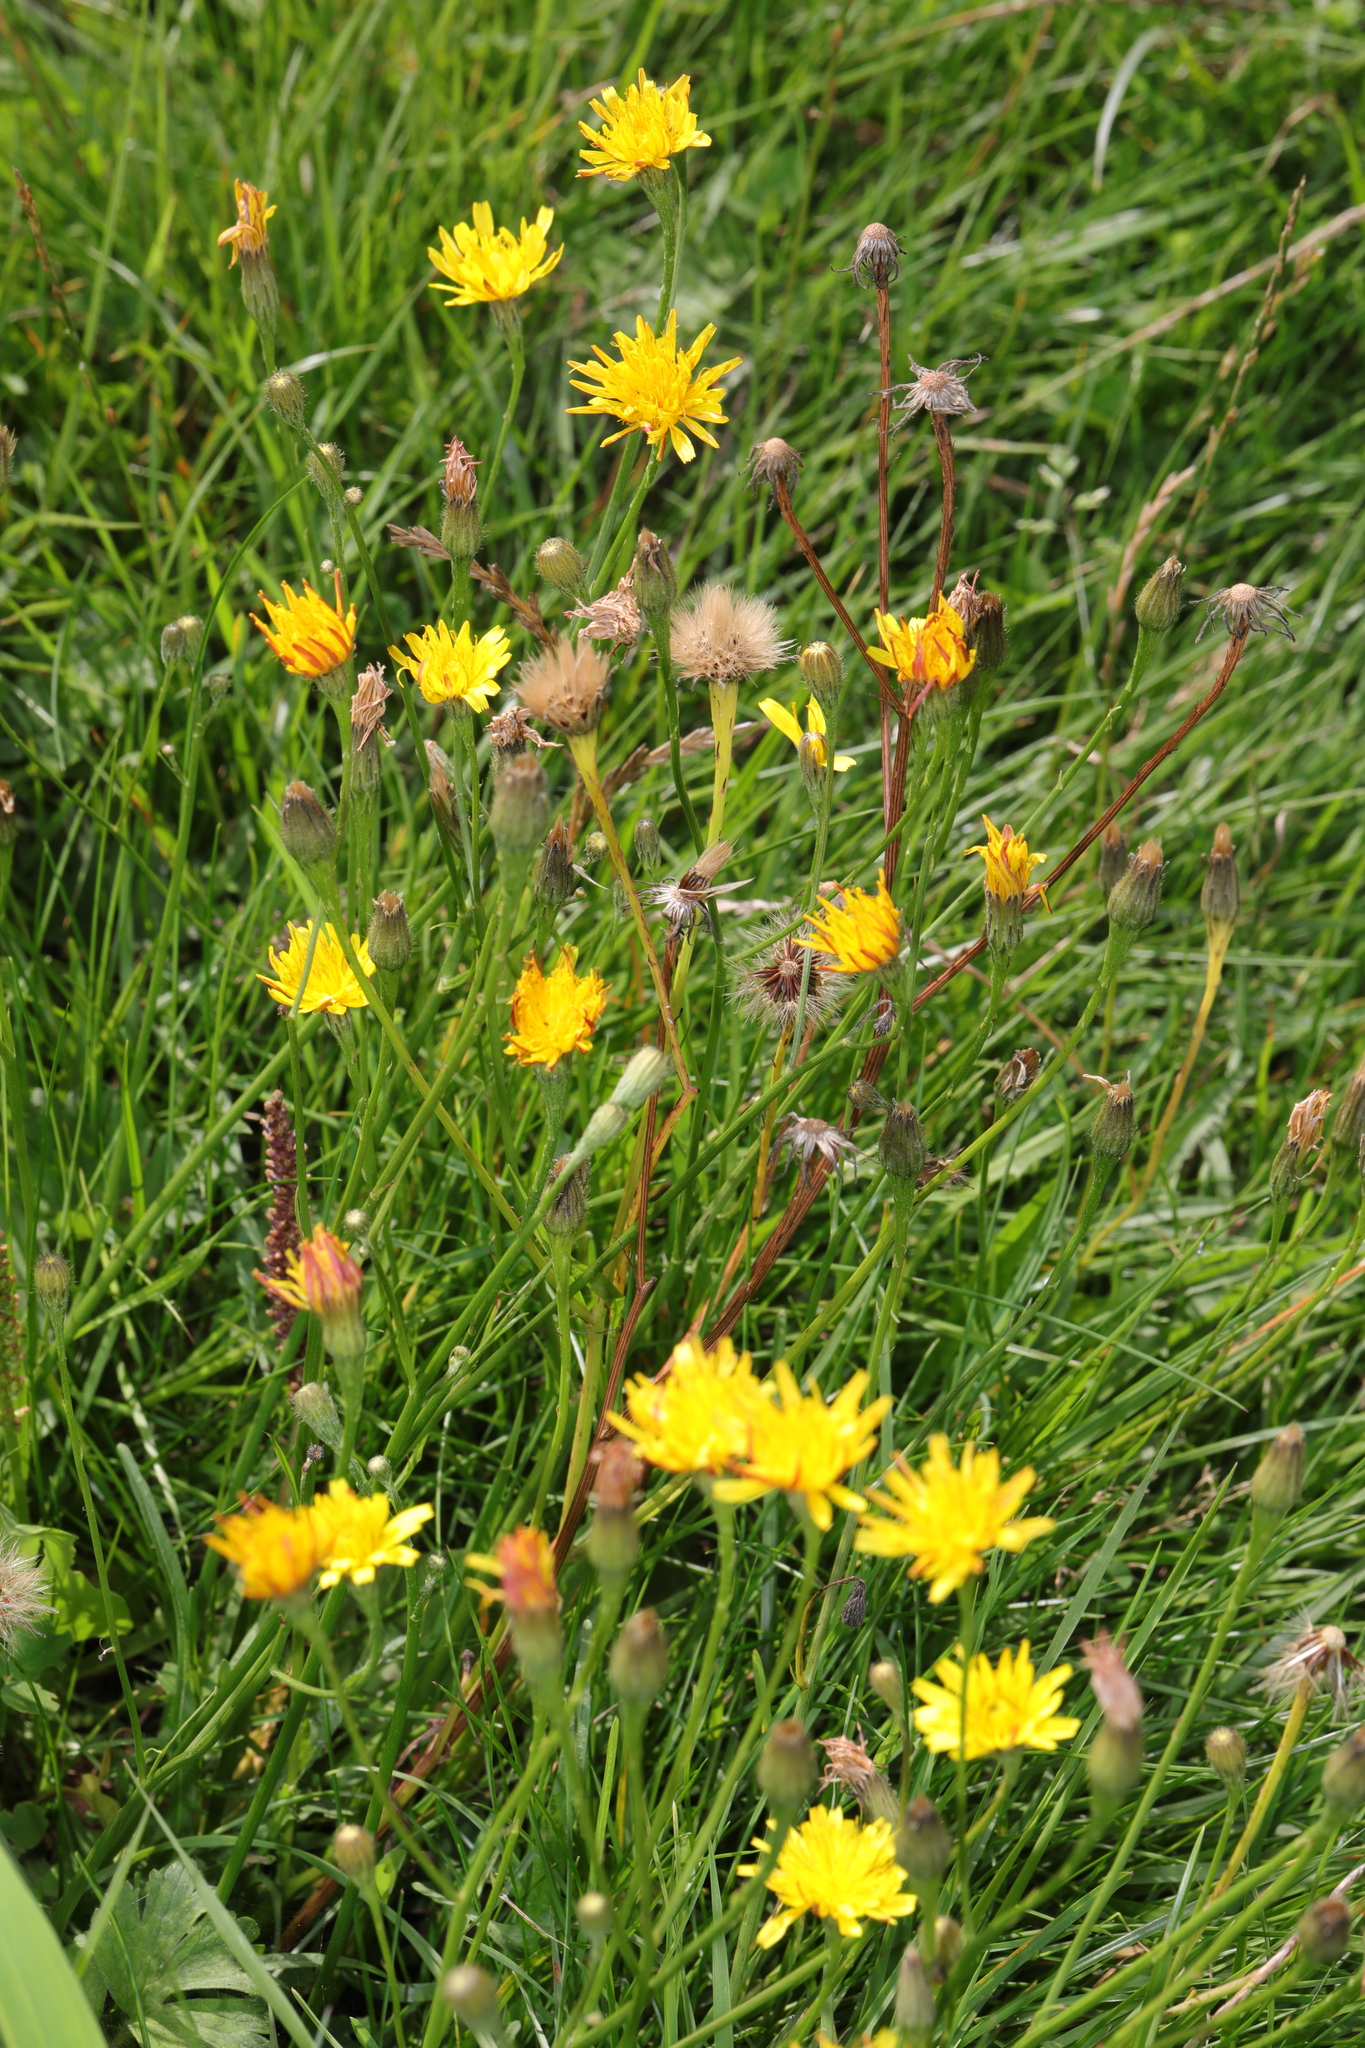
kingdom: Plantae
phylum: Tracheophyta
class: Magnoliopsida
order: Asterales
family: Asteraceae
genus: Scorzoneroides
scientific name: Scorzoneroides autumnalis
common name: Autumn hawkbit
